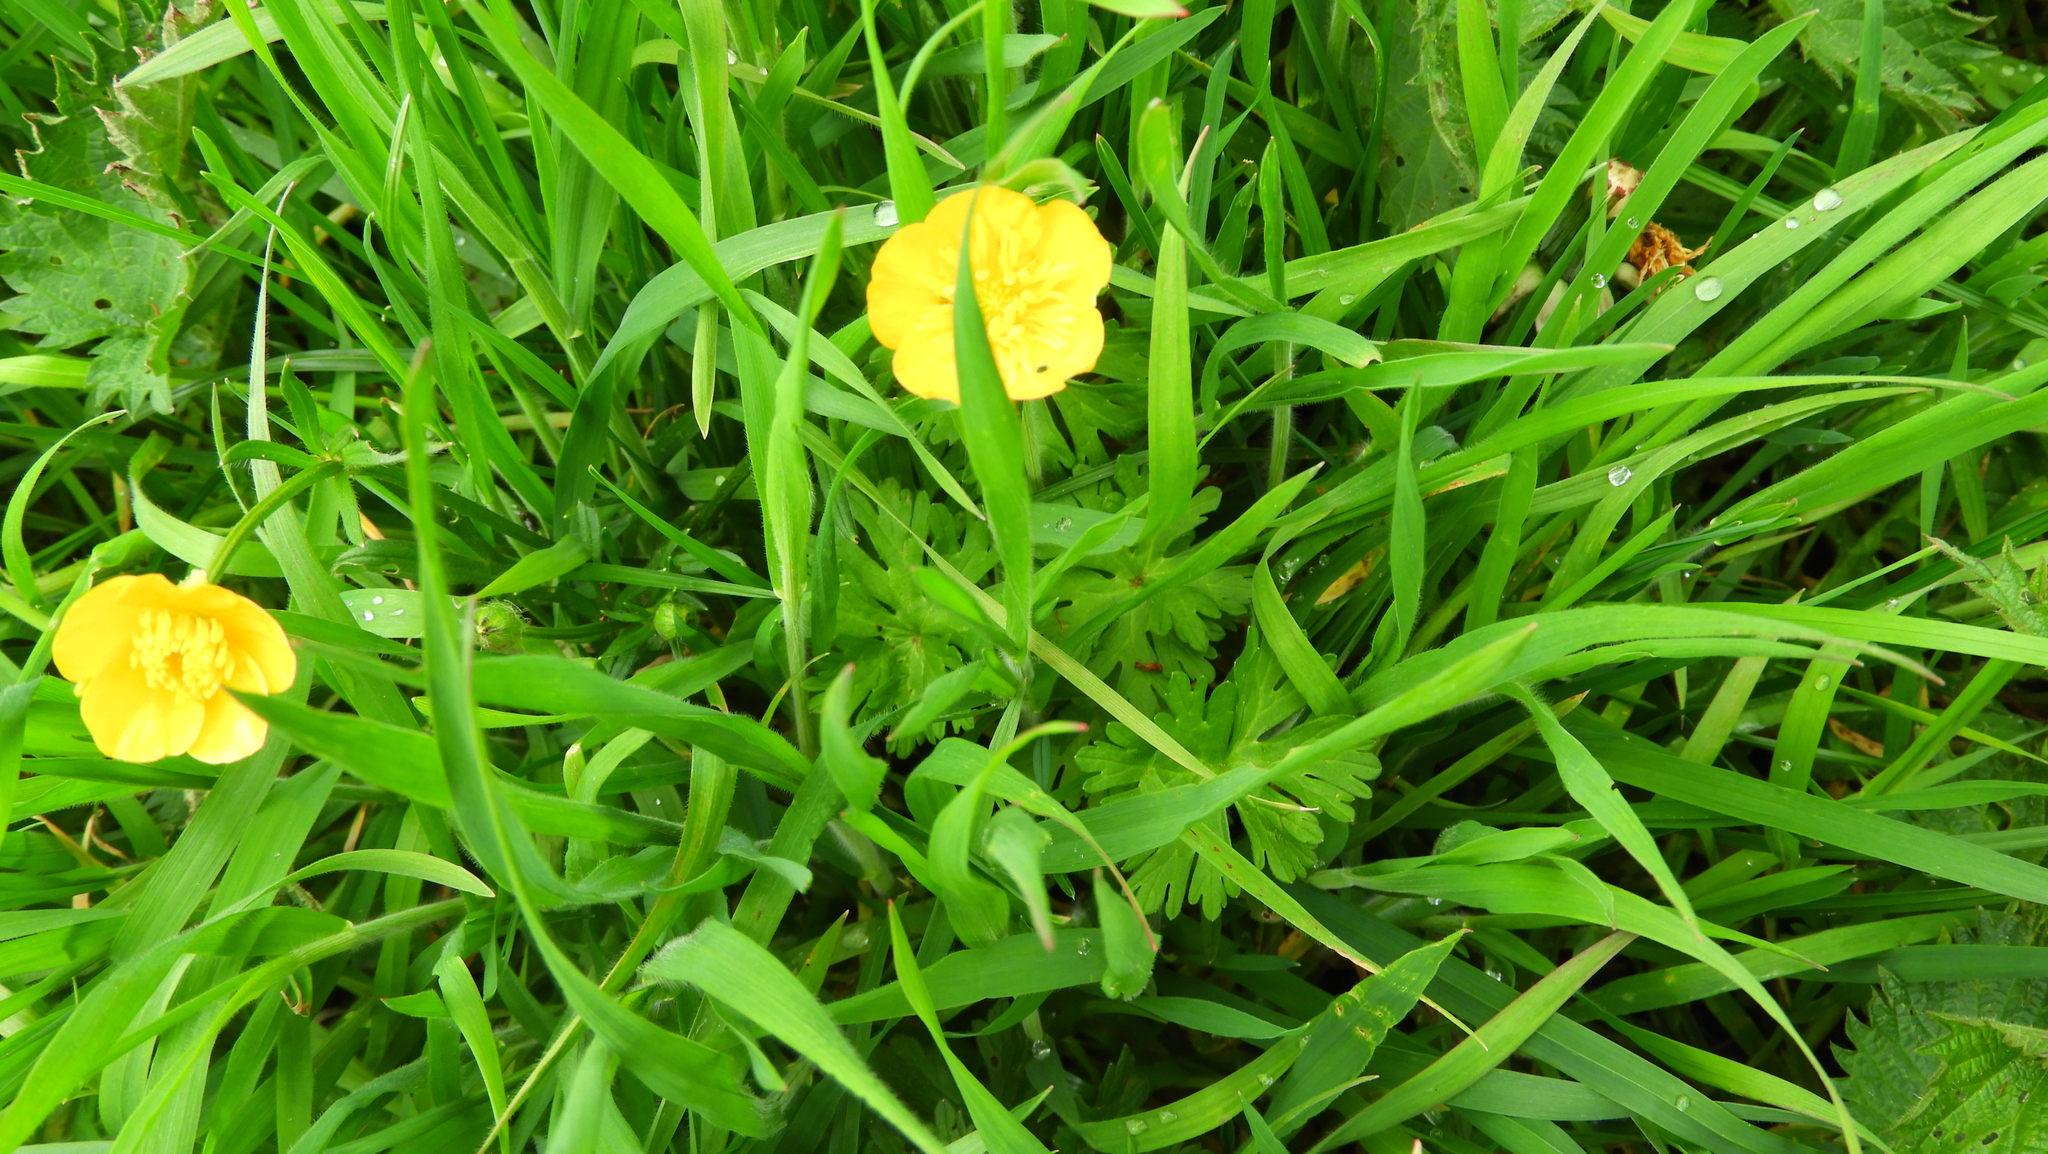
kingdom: Plantae
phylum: Tracheophyta
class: Magnoliopsida
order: Ranunculales
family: Ranunculaceae
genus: Ranunculus
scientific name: Ranunculus bulbosus
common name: Bulbous buttercup
